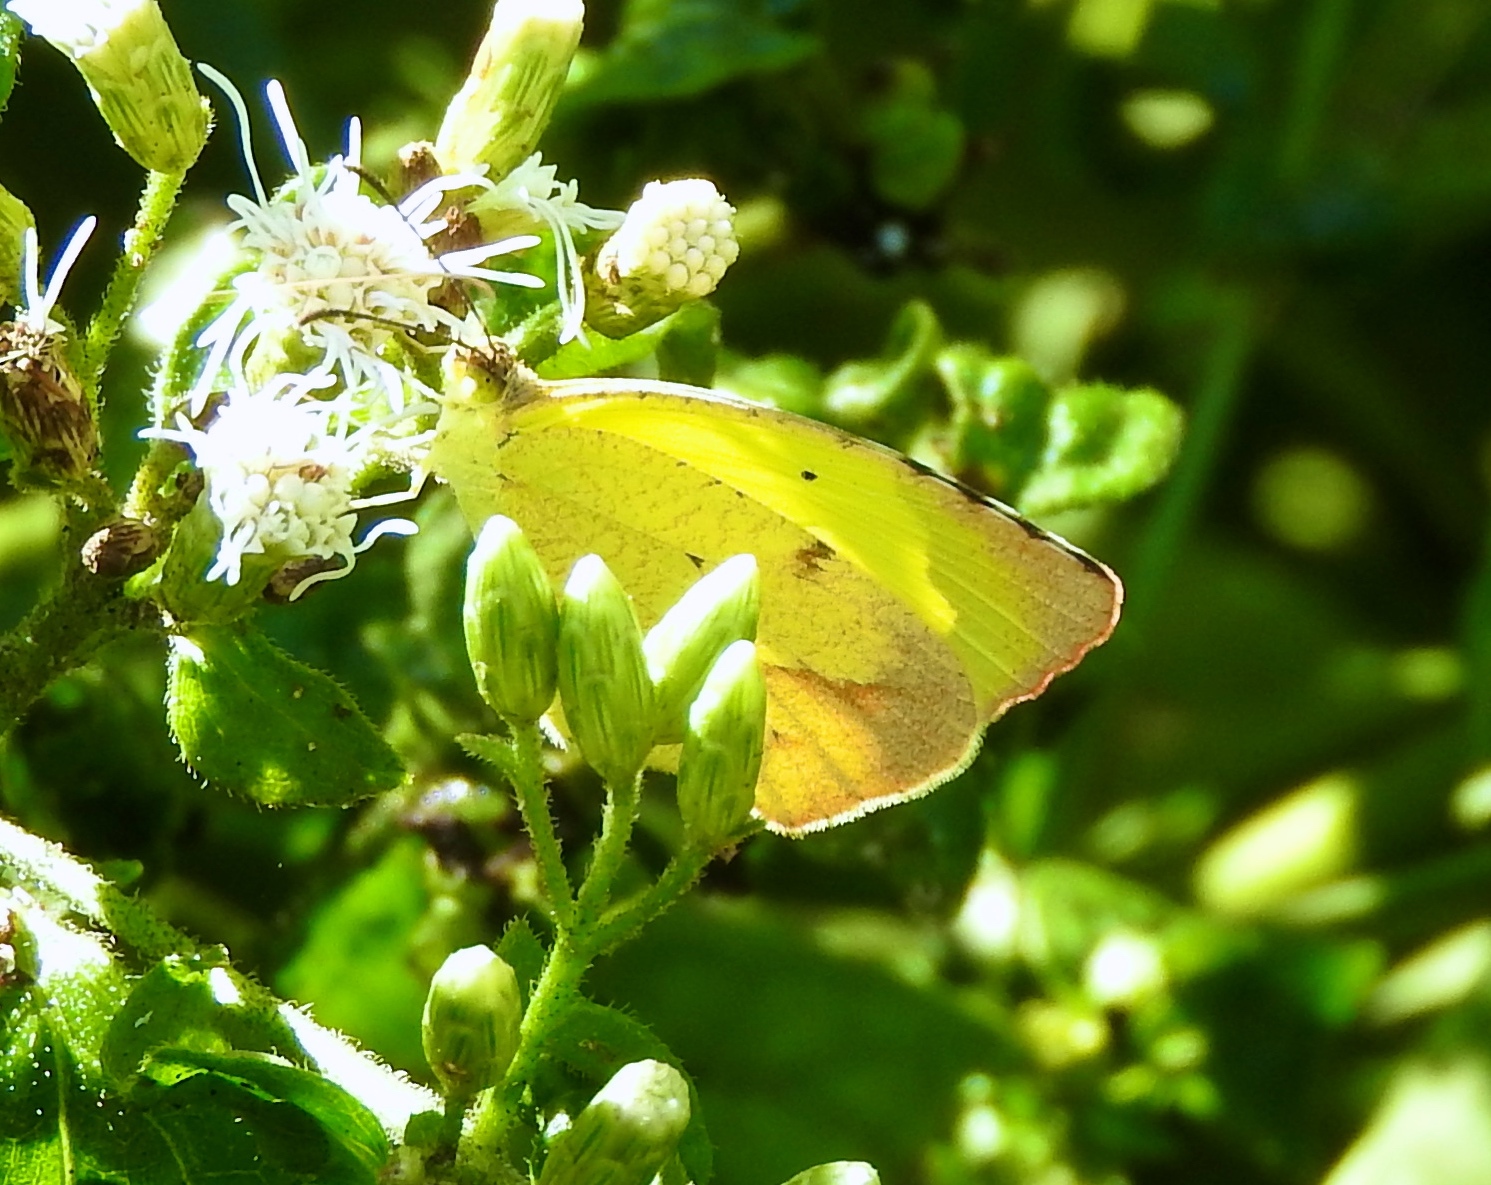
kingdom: Animalia
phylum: Arthropoda
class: Insecta
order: Lepidoptera
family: Pieridae
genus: Abaeis
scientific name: Abaeis mexicana
